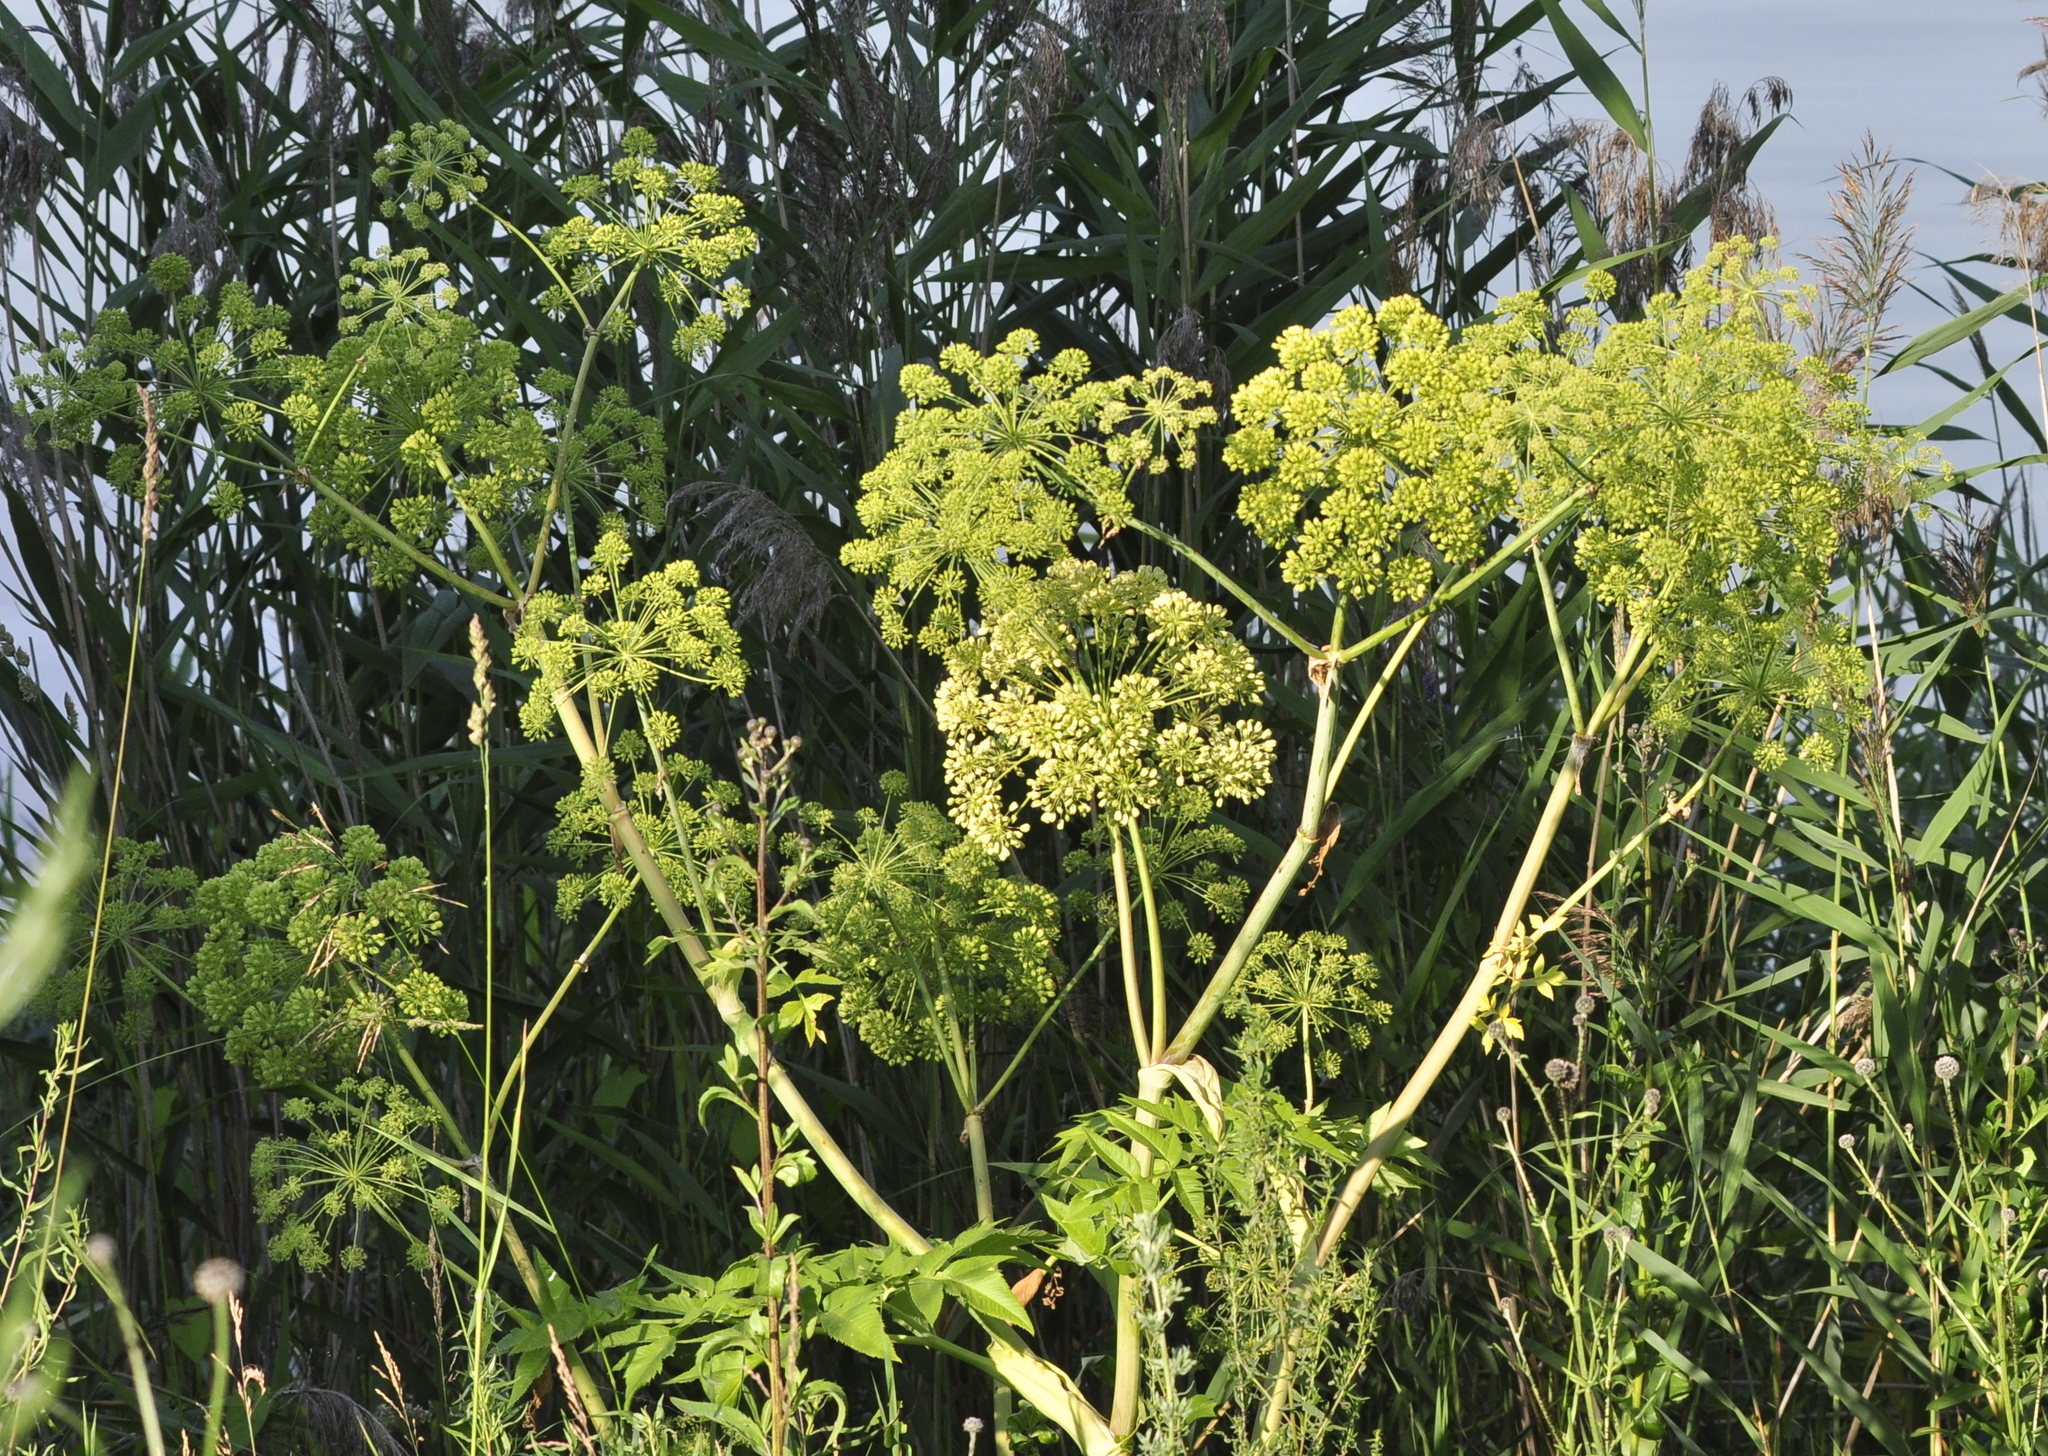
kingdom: Plantae
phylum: Tracheophyta
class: Magnoliopsida
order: Apiales
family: Apiaceae
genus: Angelica
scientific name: Angelica decurrens
